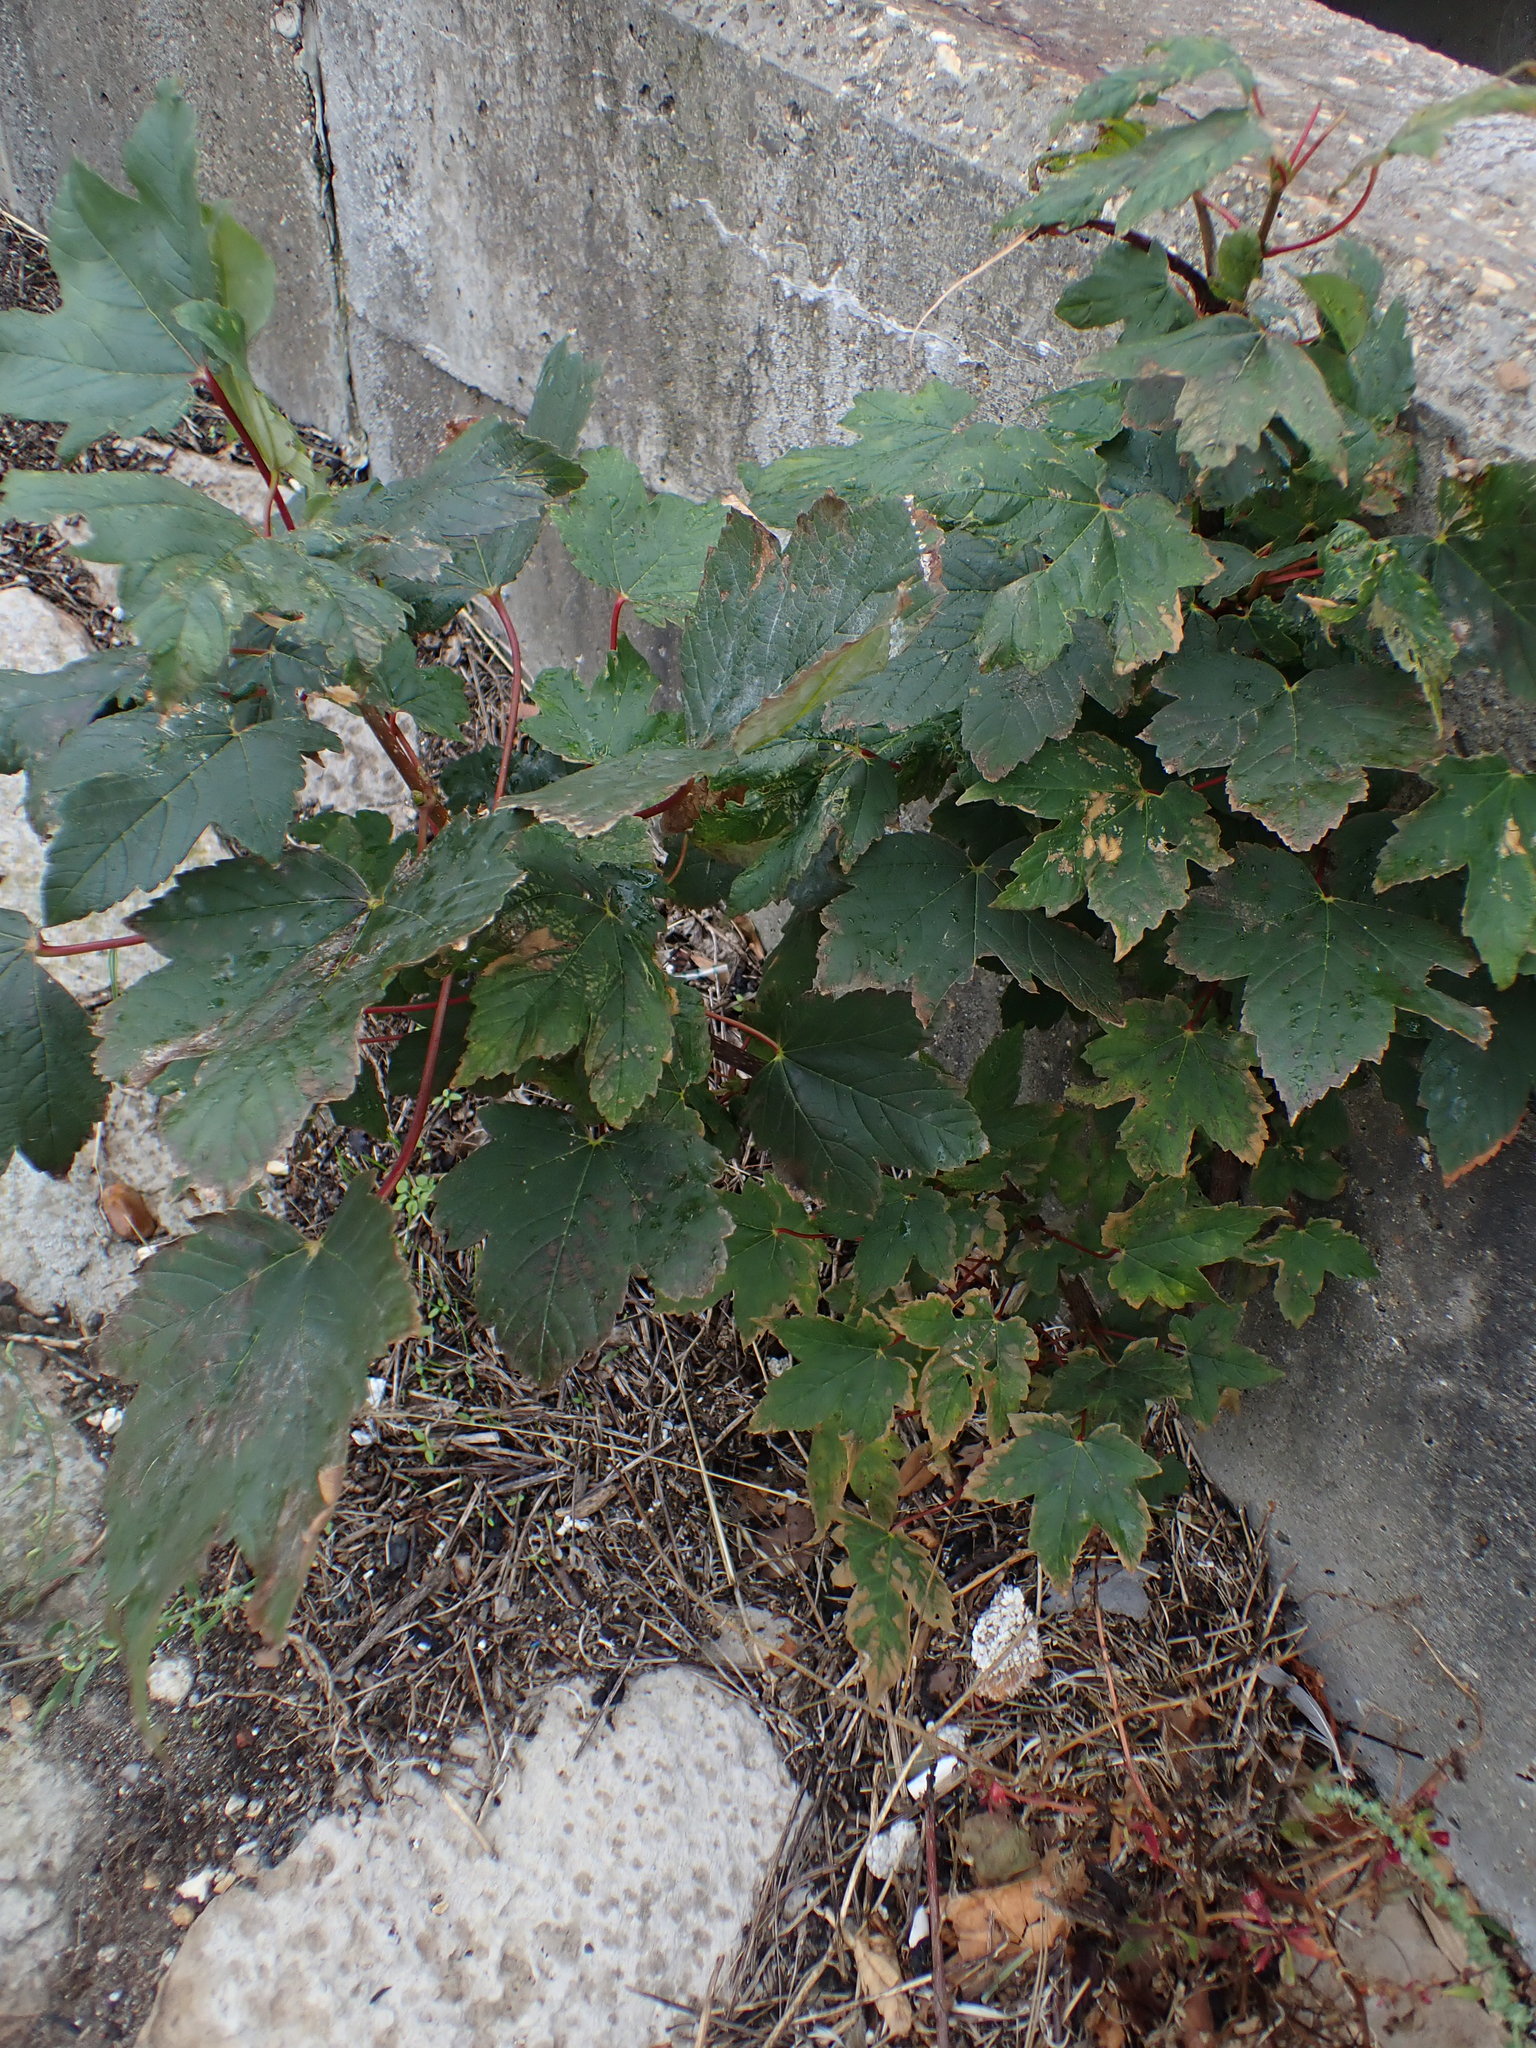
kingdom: Plantae
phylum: Tracheophyta
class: Magnoliopsida
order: Sapindales
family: Sapindaceae
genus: Acer
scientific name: Acer pseudoplatanus
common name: Sycamore
